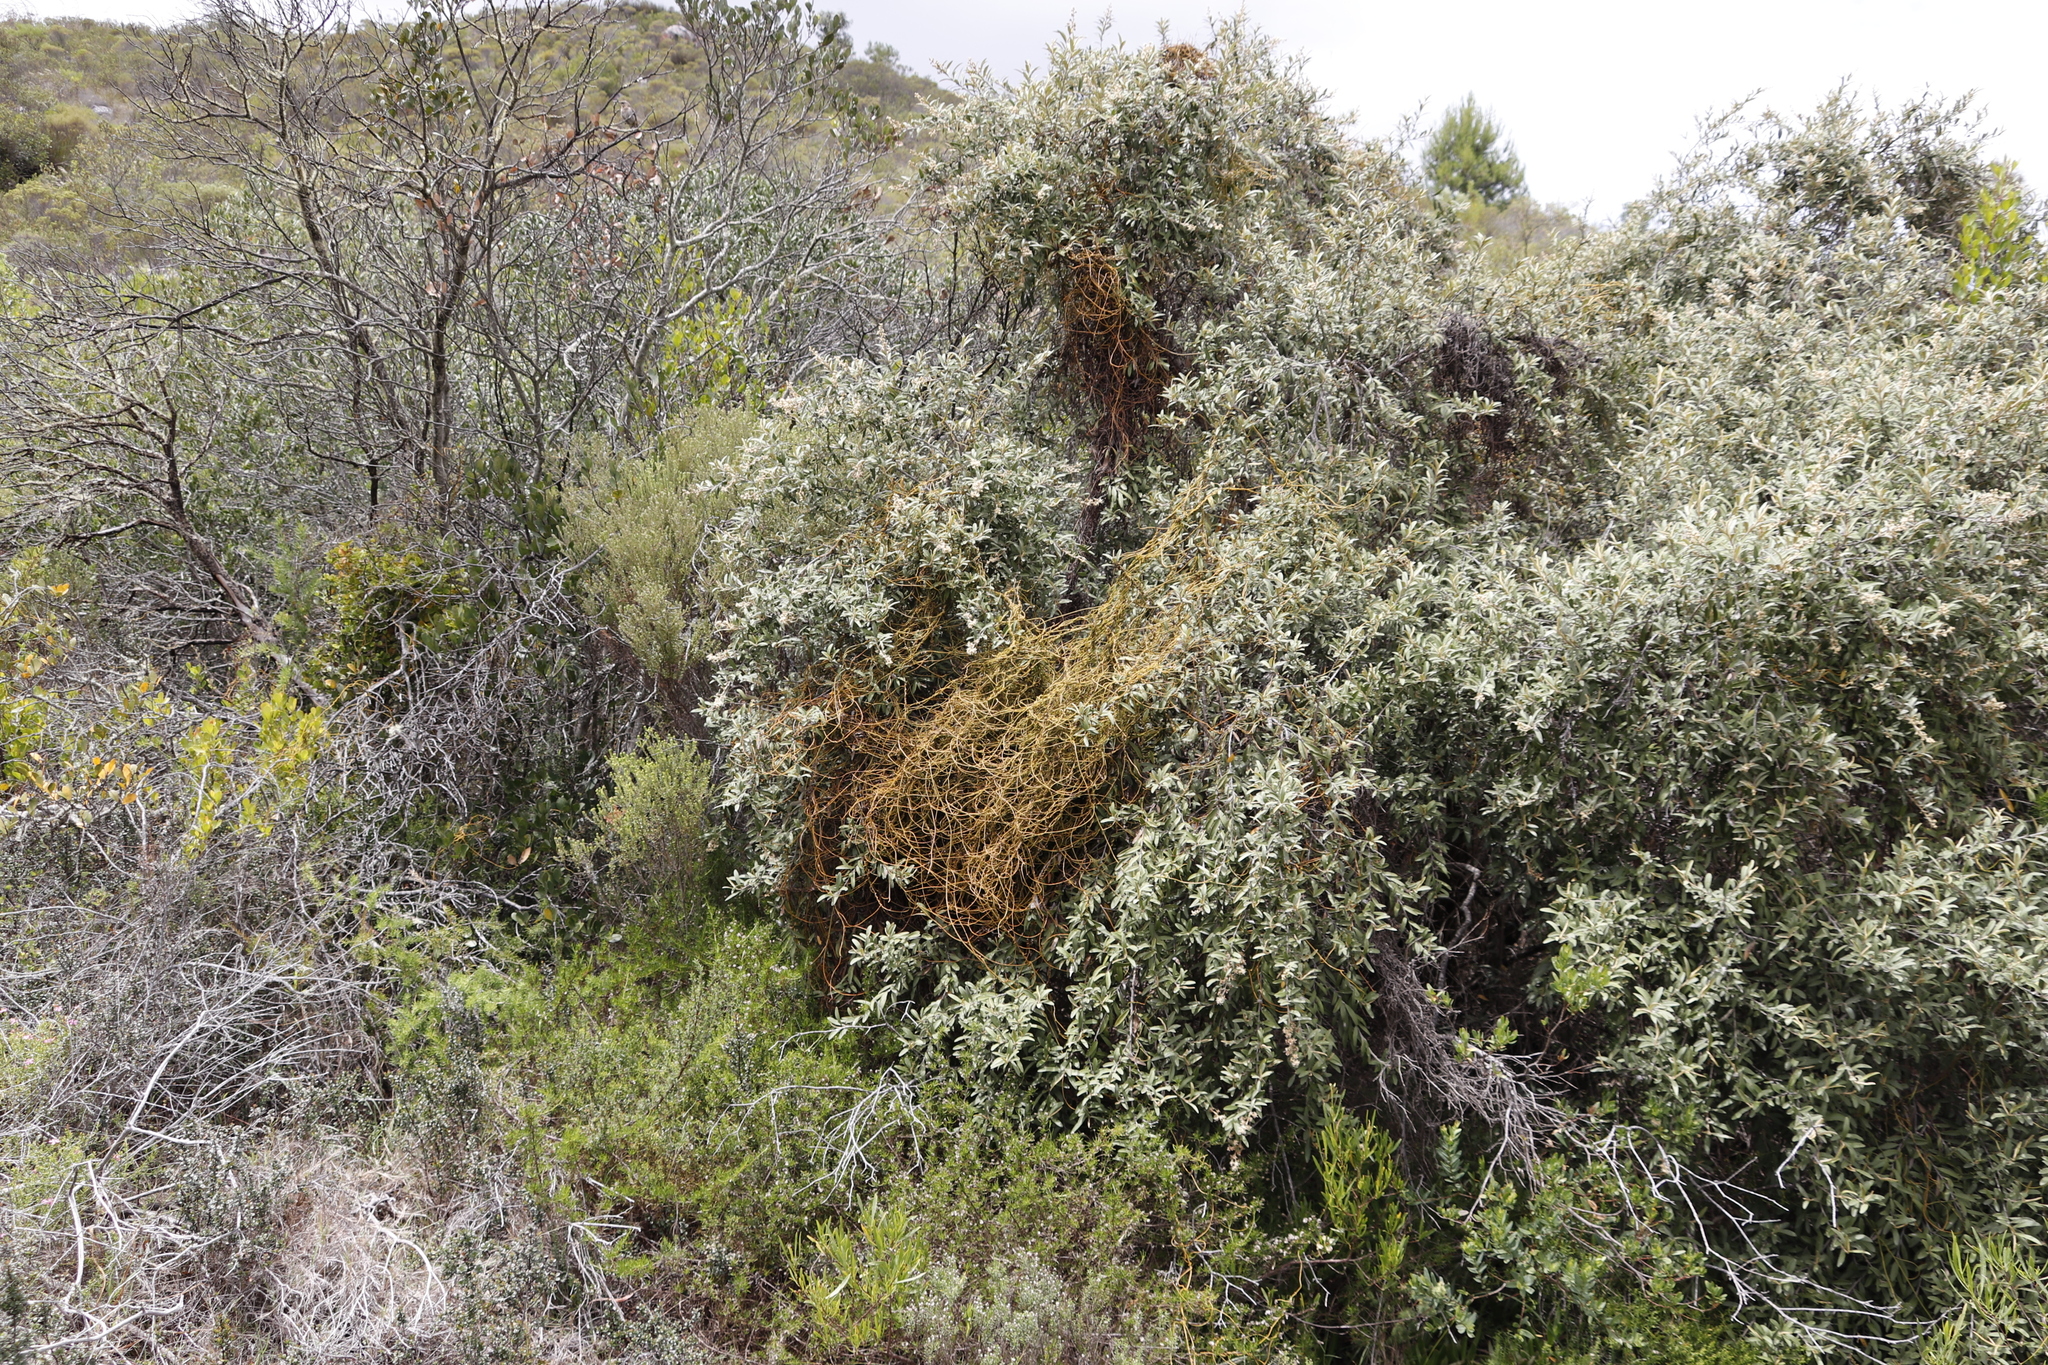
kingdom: Plantae
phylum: Tracheophyta
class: Magnoliopsida
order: Laurales
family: Lauraceae
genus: Cassytha
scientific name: Cassytha ciliolata
